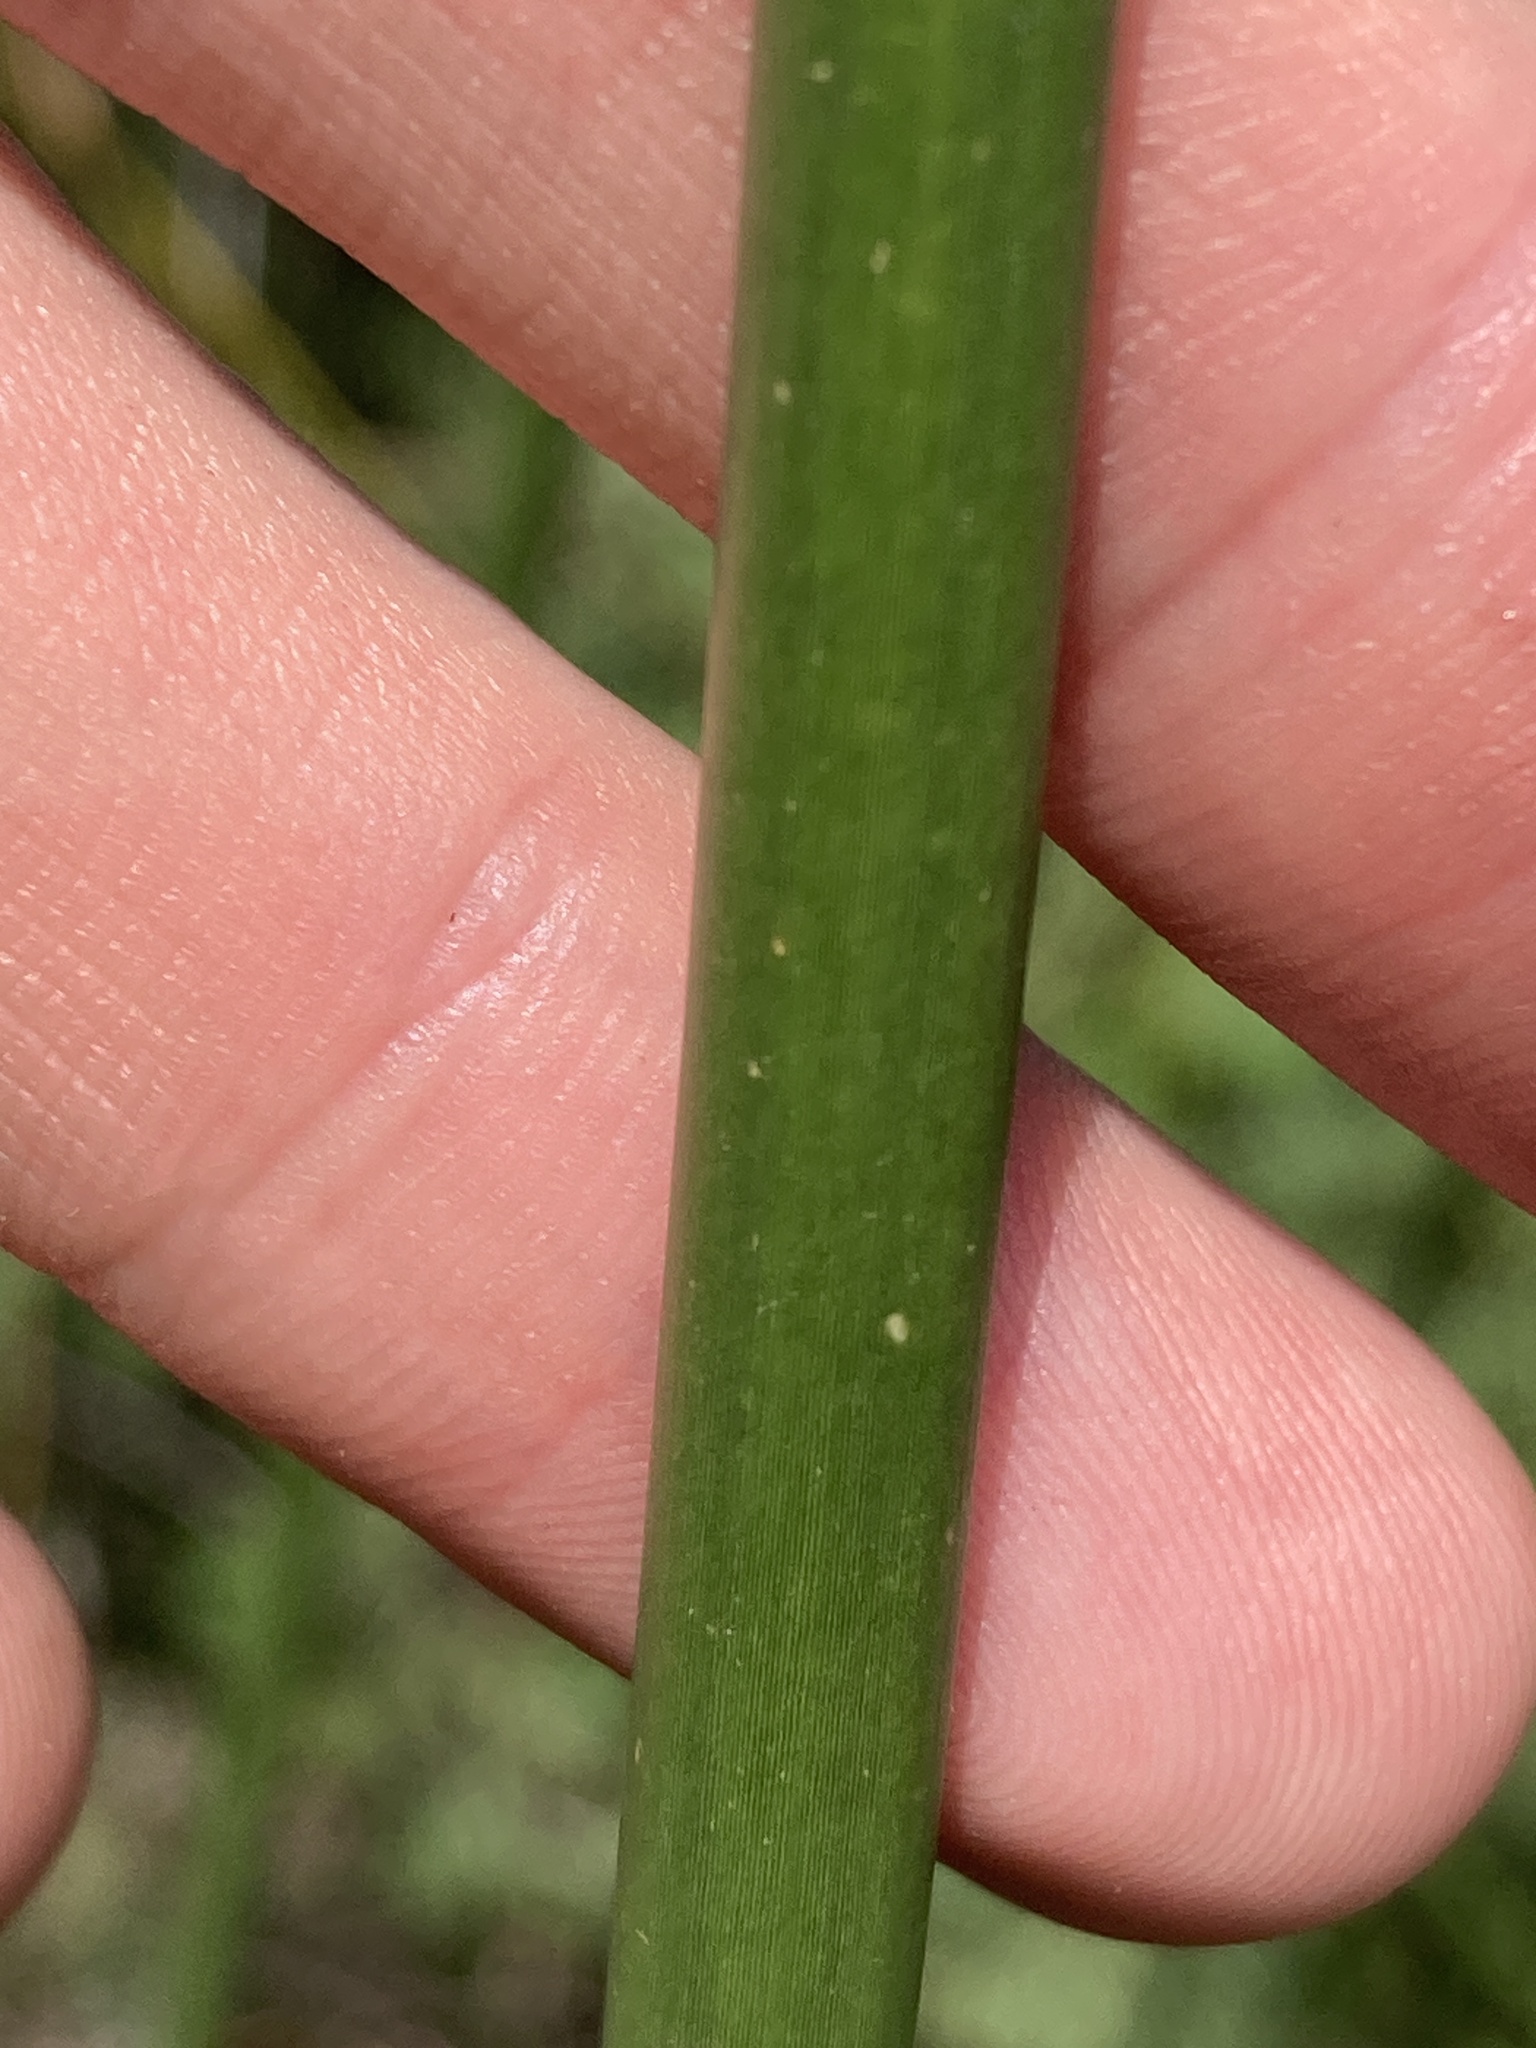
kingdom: Plantae
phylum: Tracheophyta
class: Liliopsida
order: Poales
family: Cyperaceae
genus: Schoenoplectus
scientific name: Schoenoplectus lacustris
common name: Common club-rush
